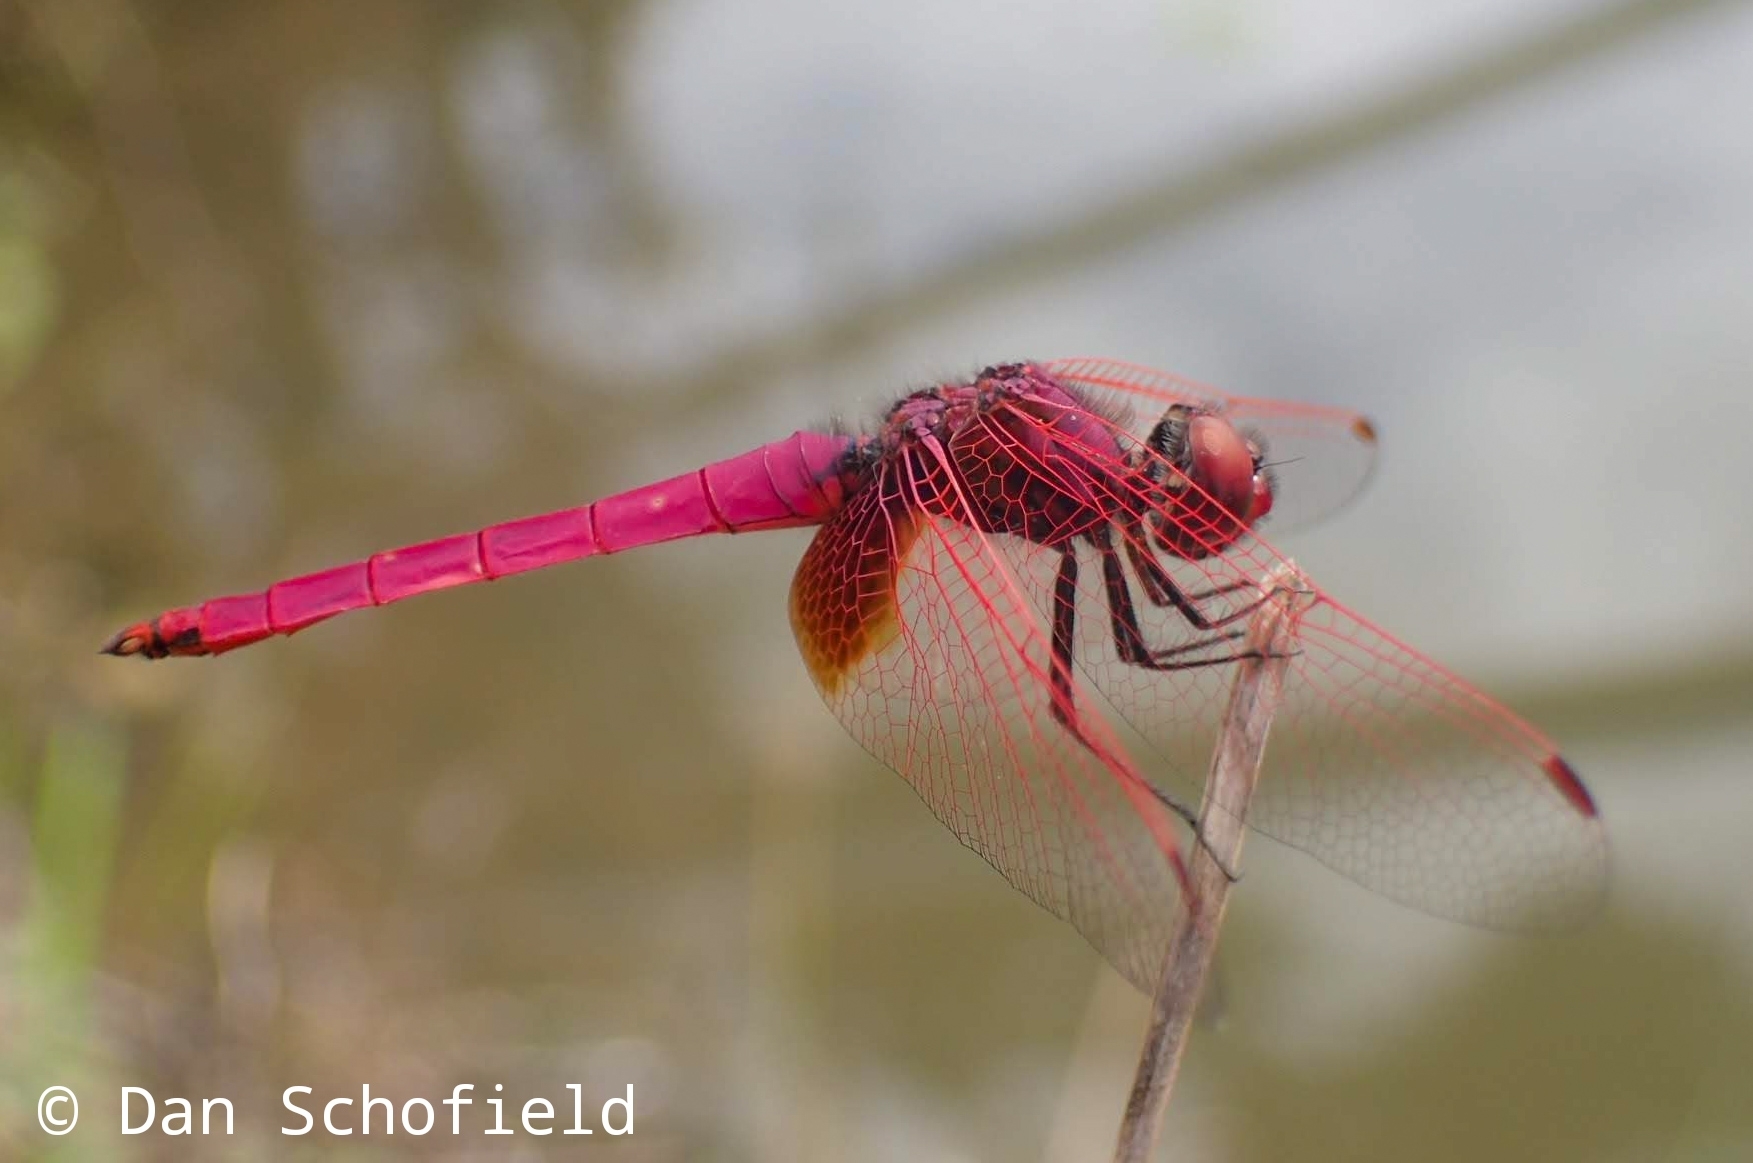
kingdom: Animalia
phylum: Arthropoda
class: Insecta
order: Odonata
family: Libellulidae
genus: Trithemis
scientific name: Trithemis aurora
